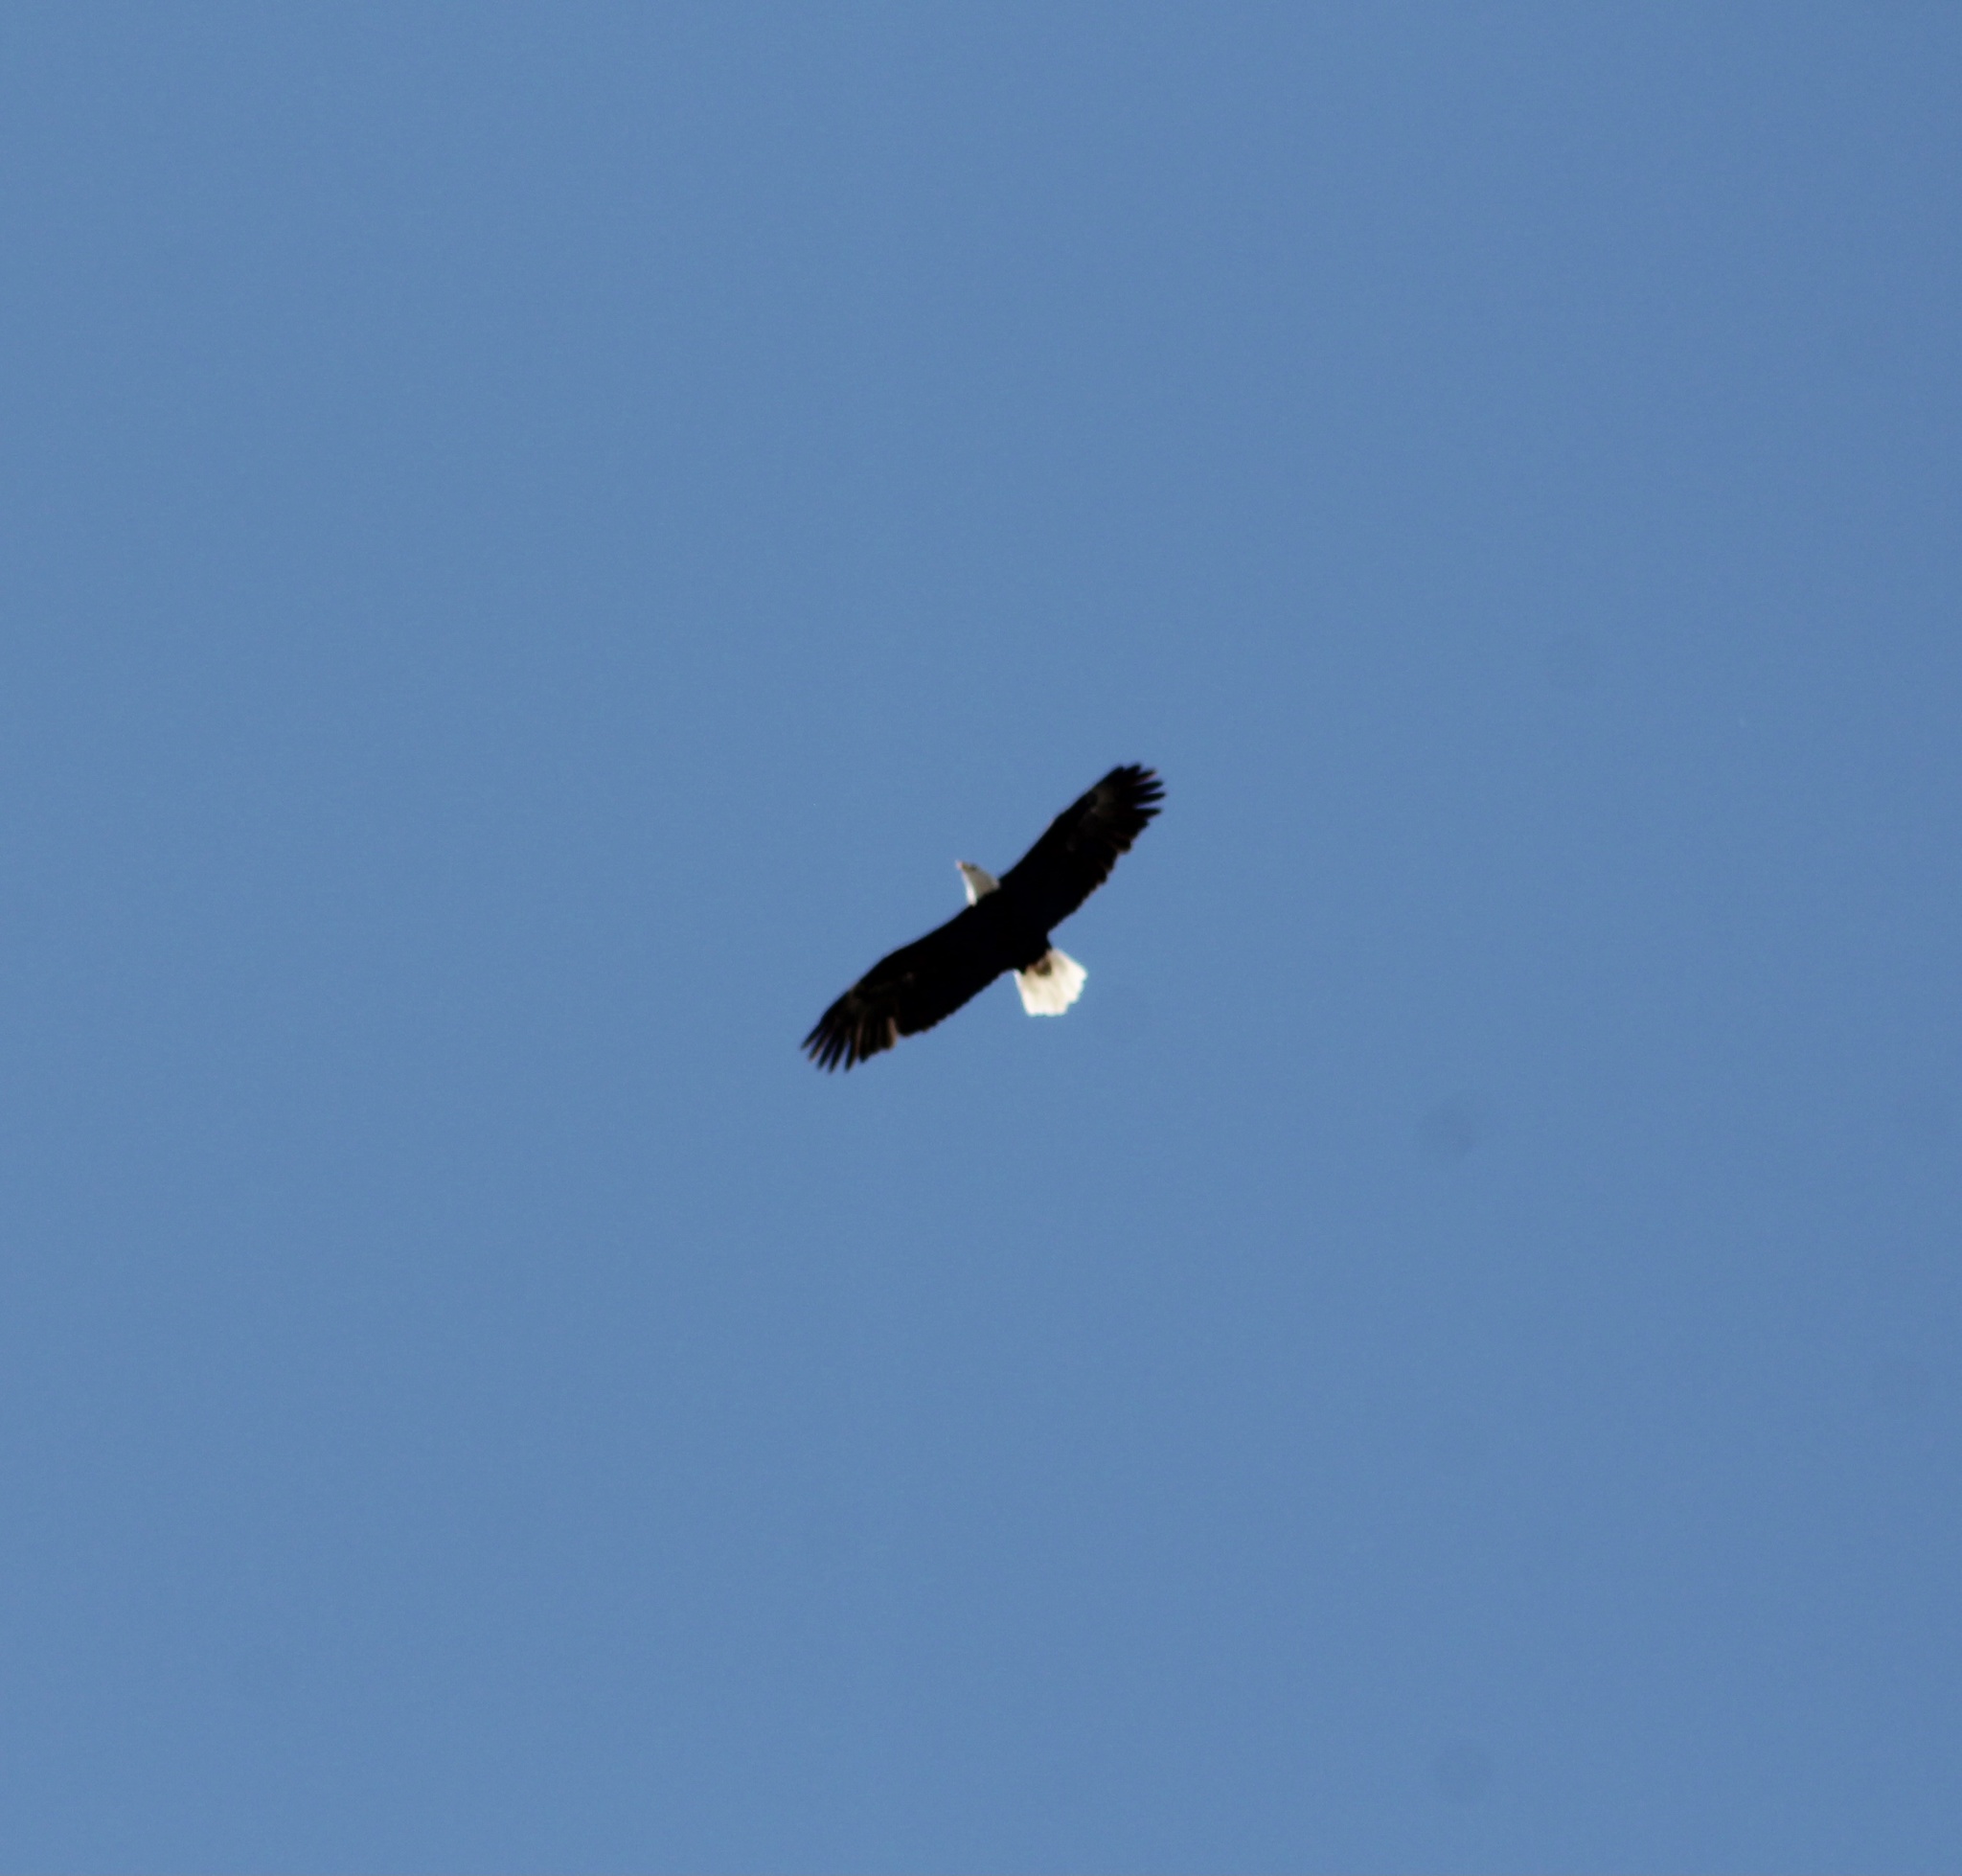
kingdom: Animalia
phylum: Chordata
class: Aves
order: Accipitriformes
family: Accipitridae
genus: Haliaeetus
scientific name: Haliaeetus leucocephalus
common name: Bald eagle
